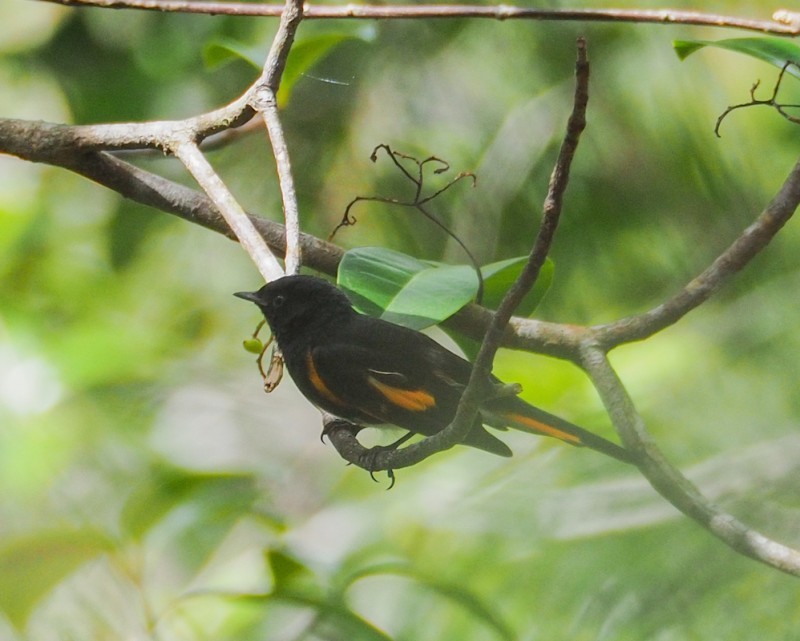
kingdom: Animalia
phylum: Chordata
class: Aves
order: Passeriformes
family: Parulidae
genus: Setophaga
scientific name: Setophaga ruticilla
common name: American redstart
